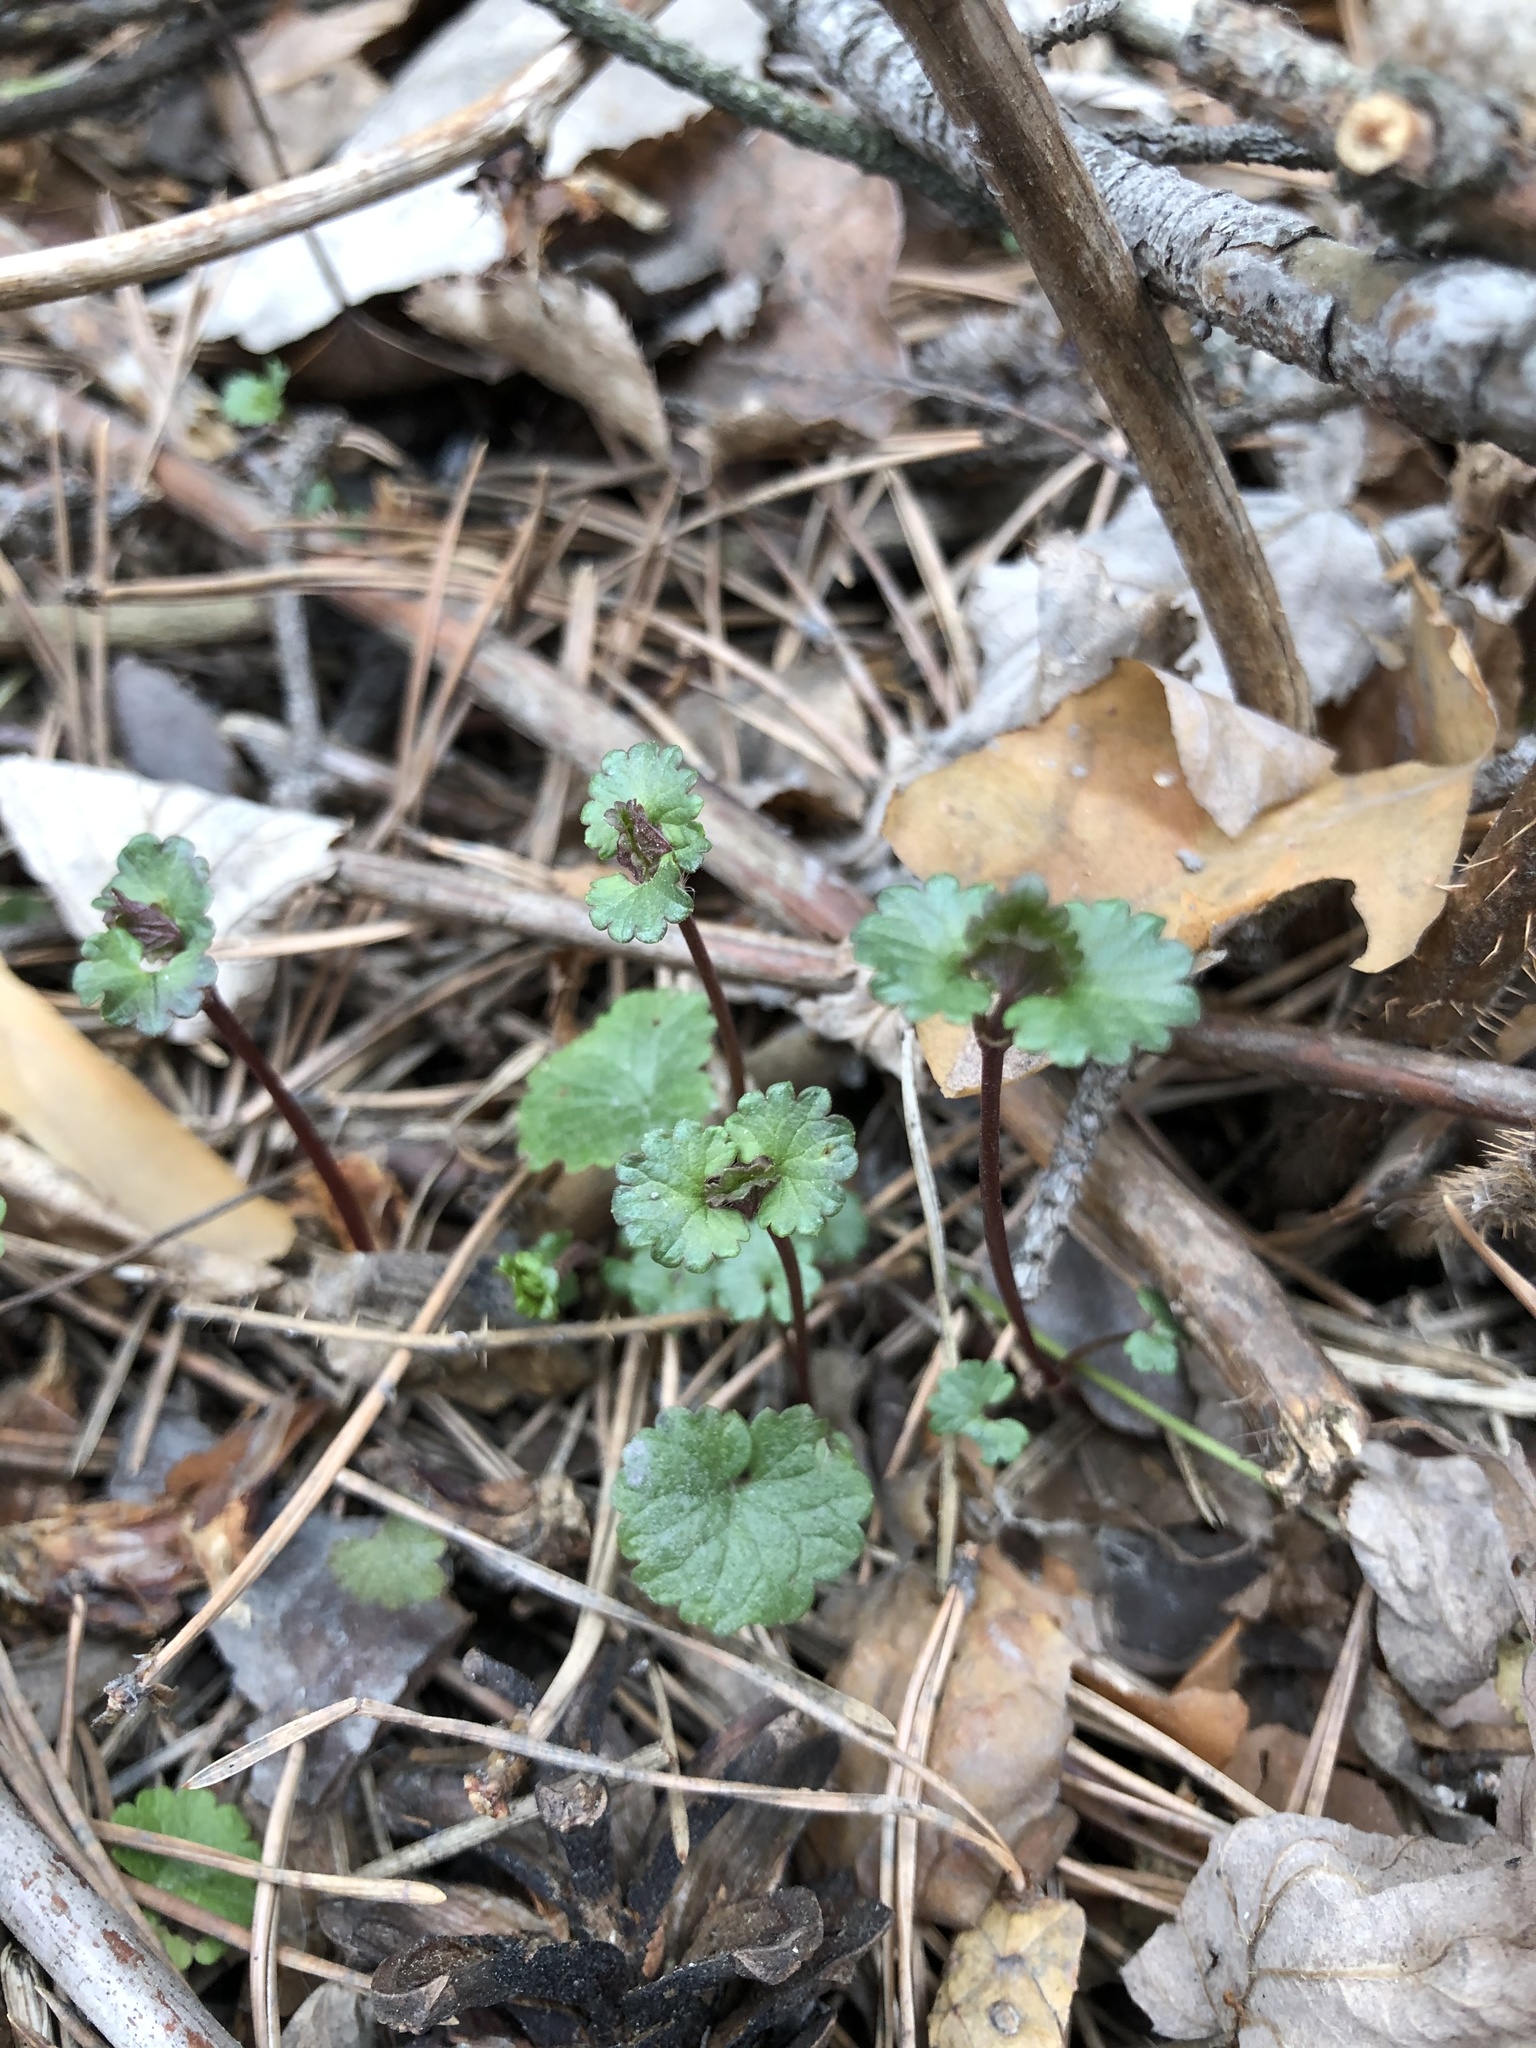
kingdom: Plantae
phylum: Tracheophyta
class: Magnoliopsida
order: Lamiales
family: Lamiaceae
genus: Glechoma
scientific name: Glechoma hederacea
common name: Ground ivy
